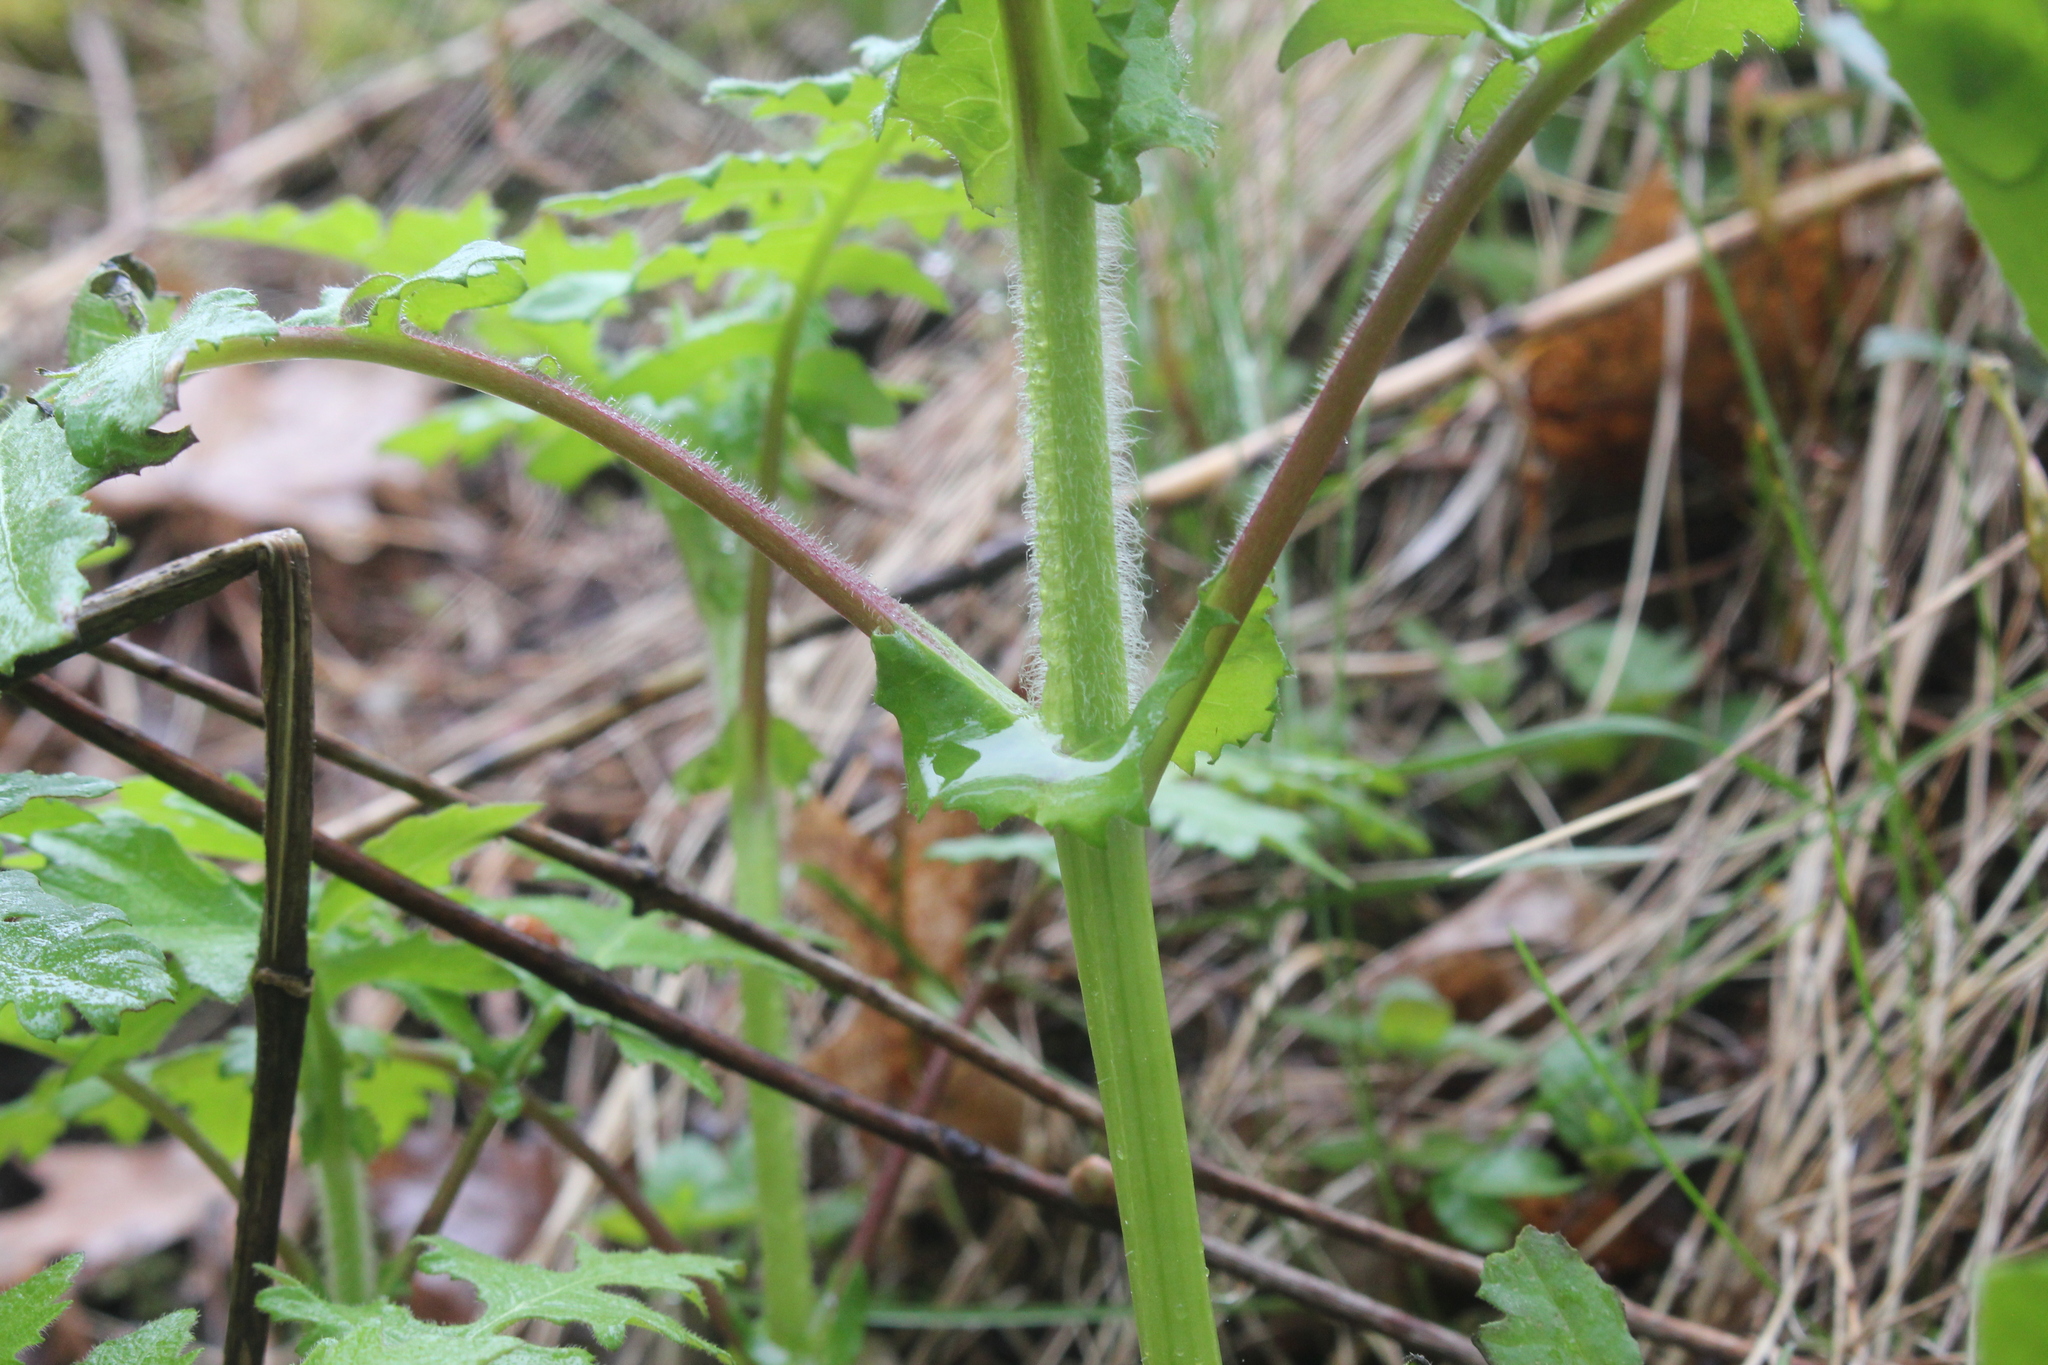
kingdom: Plantae
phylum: Tracheophyta
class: Magnoliopsida
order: Asterales
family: Asteraceae
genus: Polymnia
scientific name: Polymnia canadensis
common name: Pale-flowered leafcup
